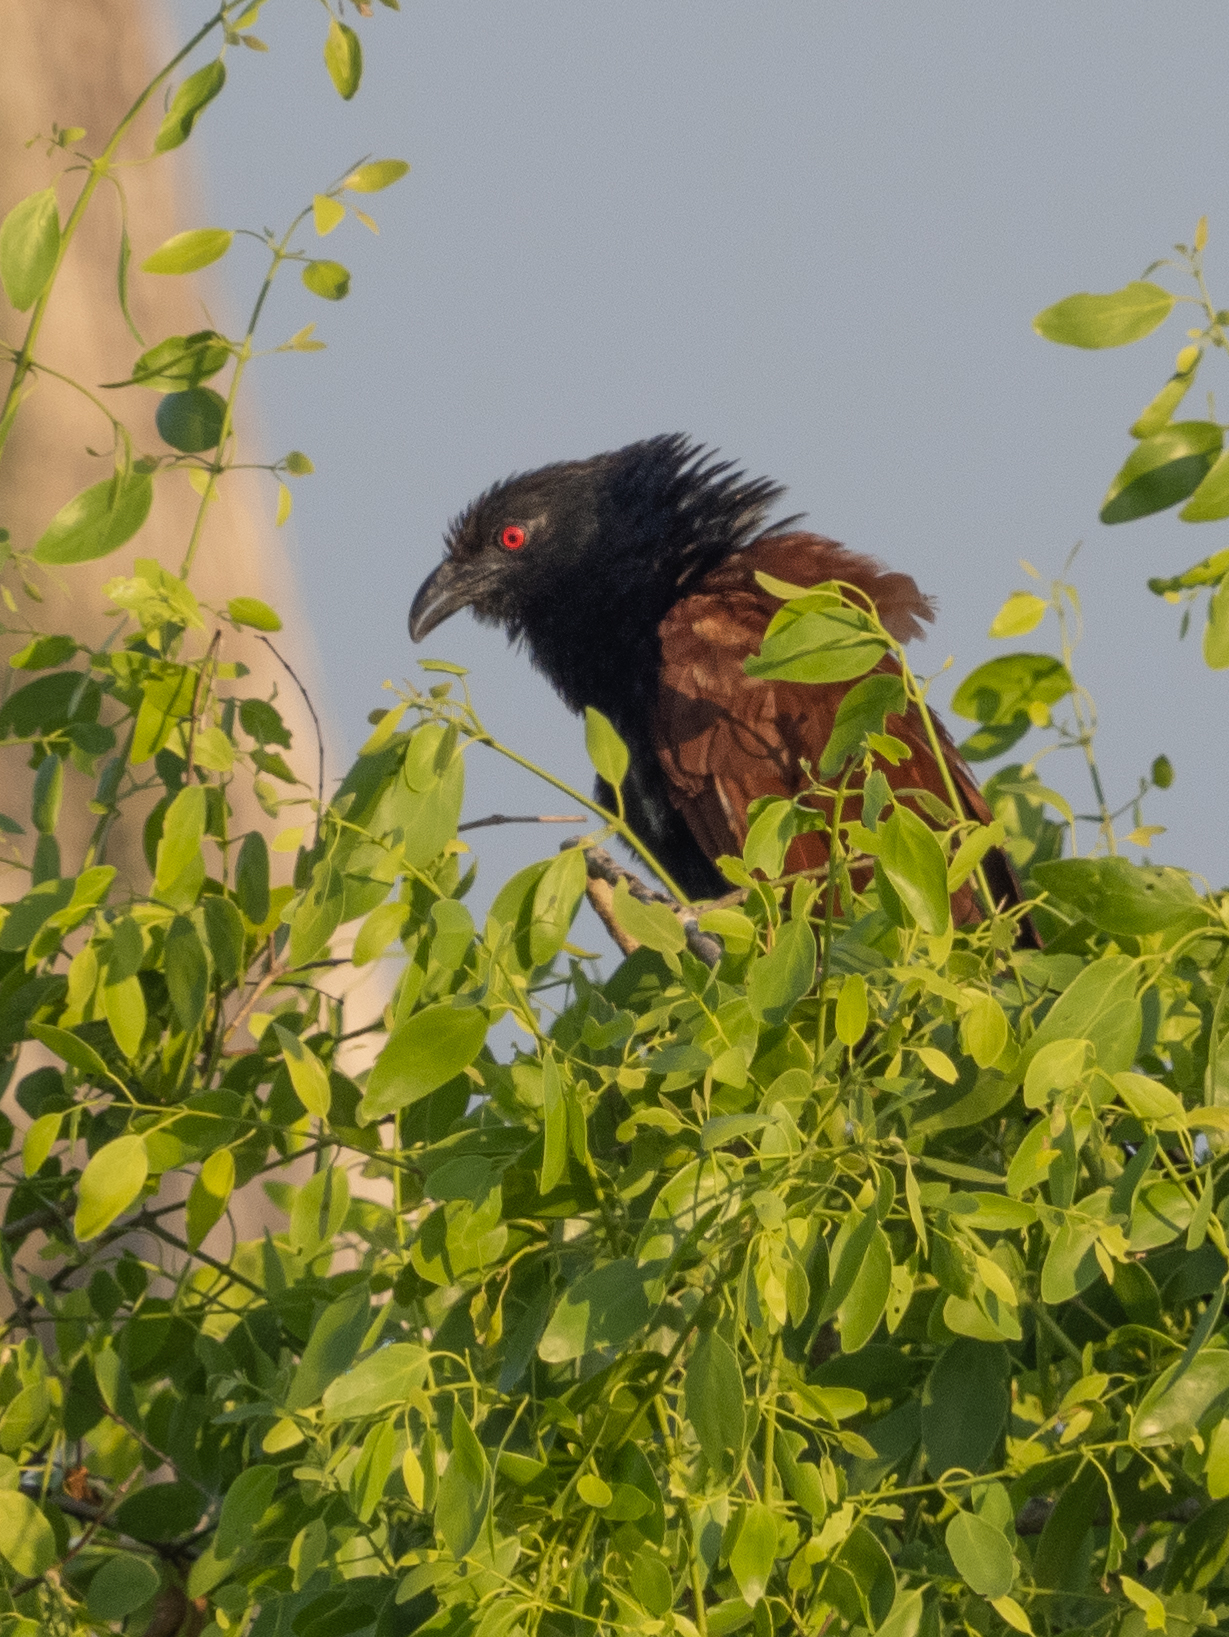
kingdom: Animalia
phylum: Chordata
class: Aves
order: Cuculiformes
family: Cuculidae
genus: Centropus
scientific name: Centropus sinensis
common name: Greater coucal
